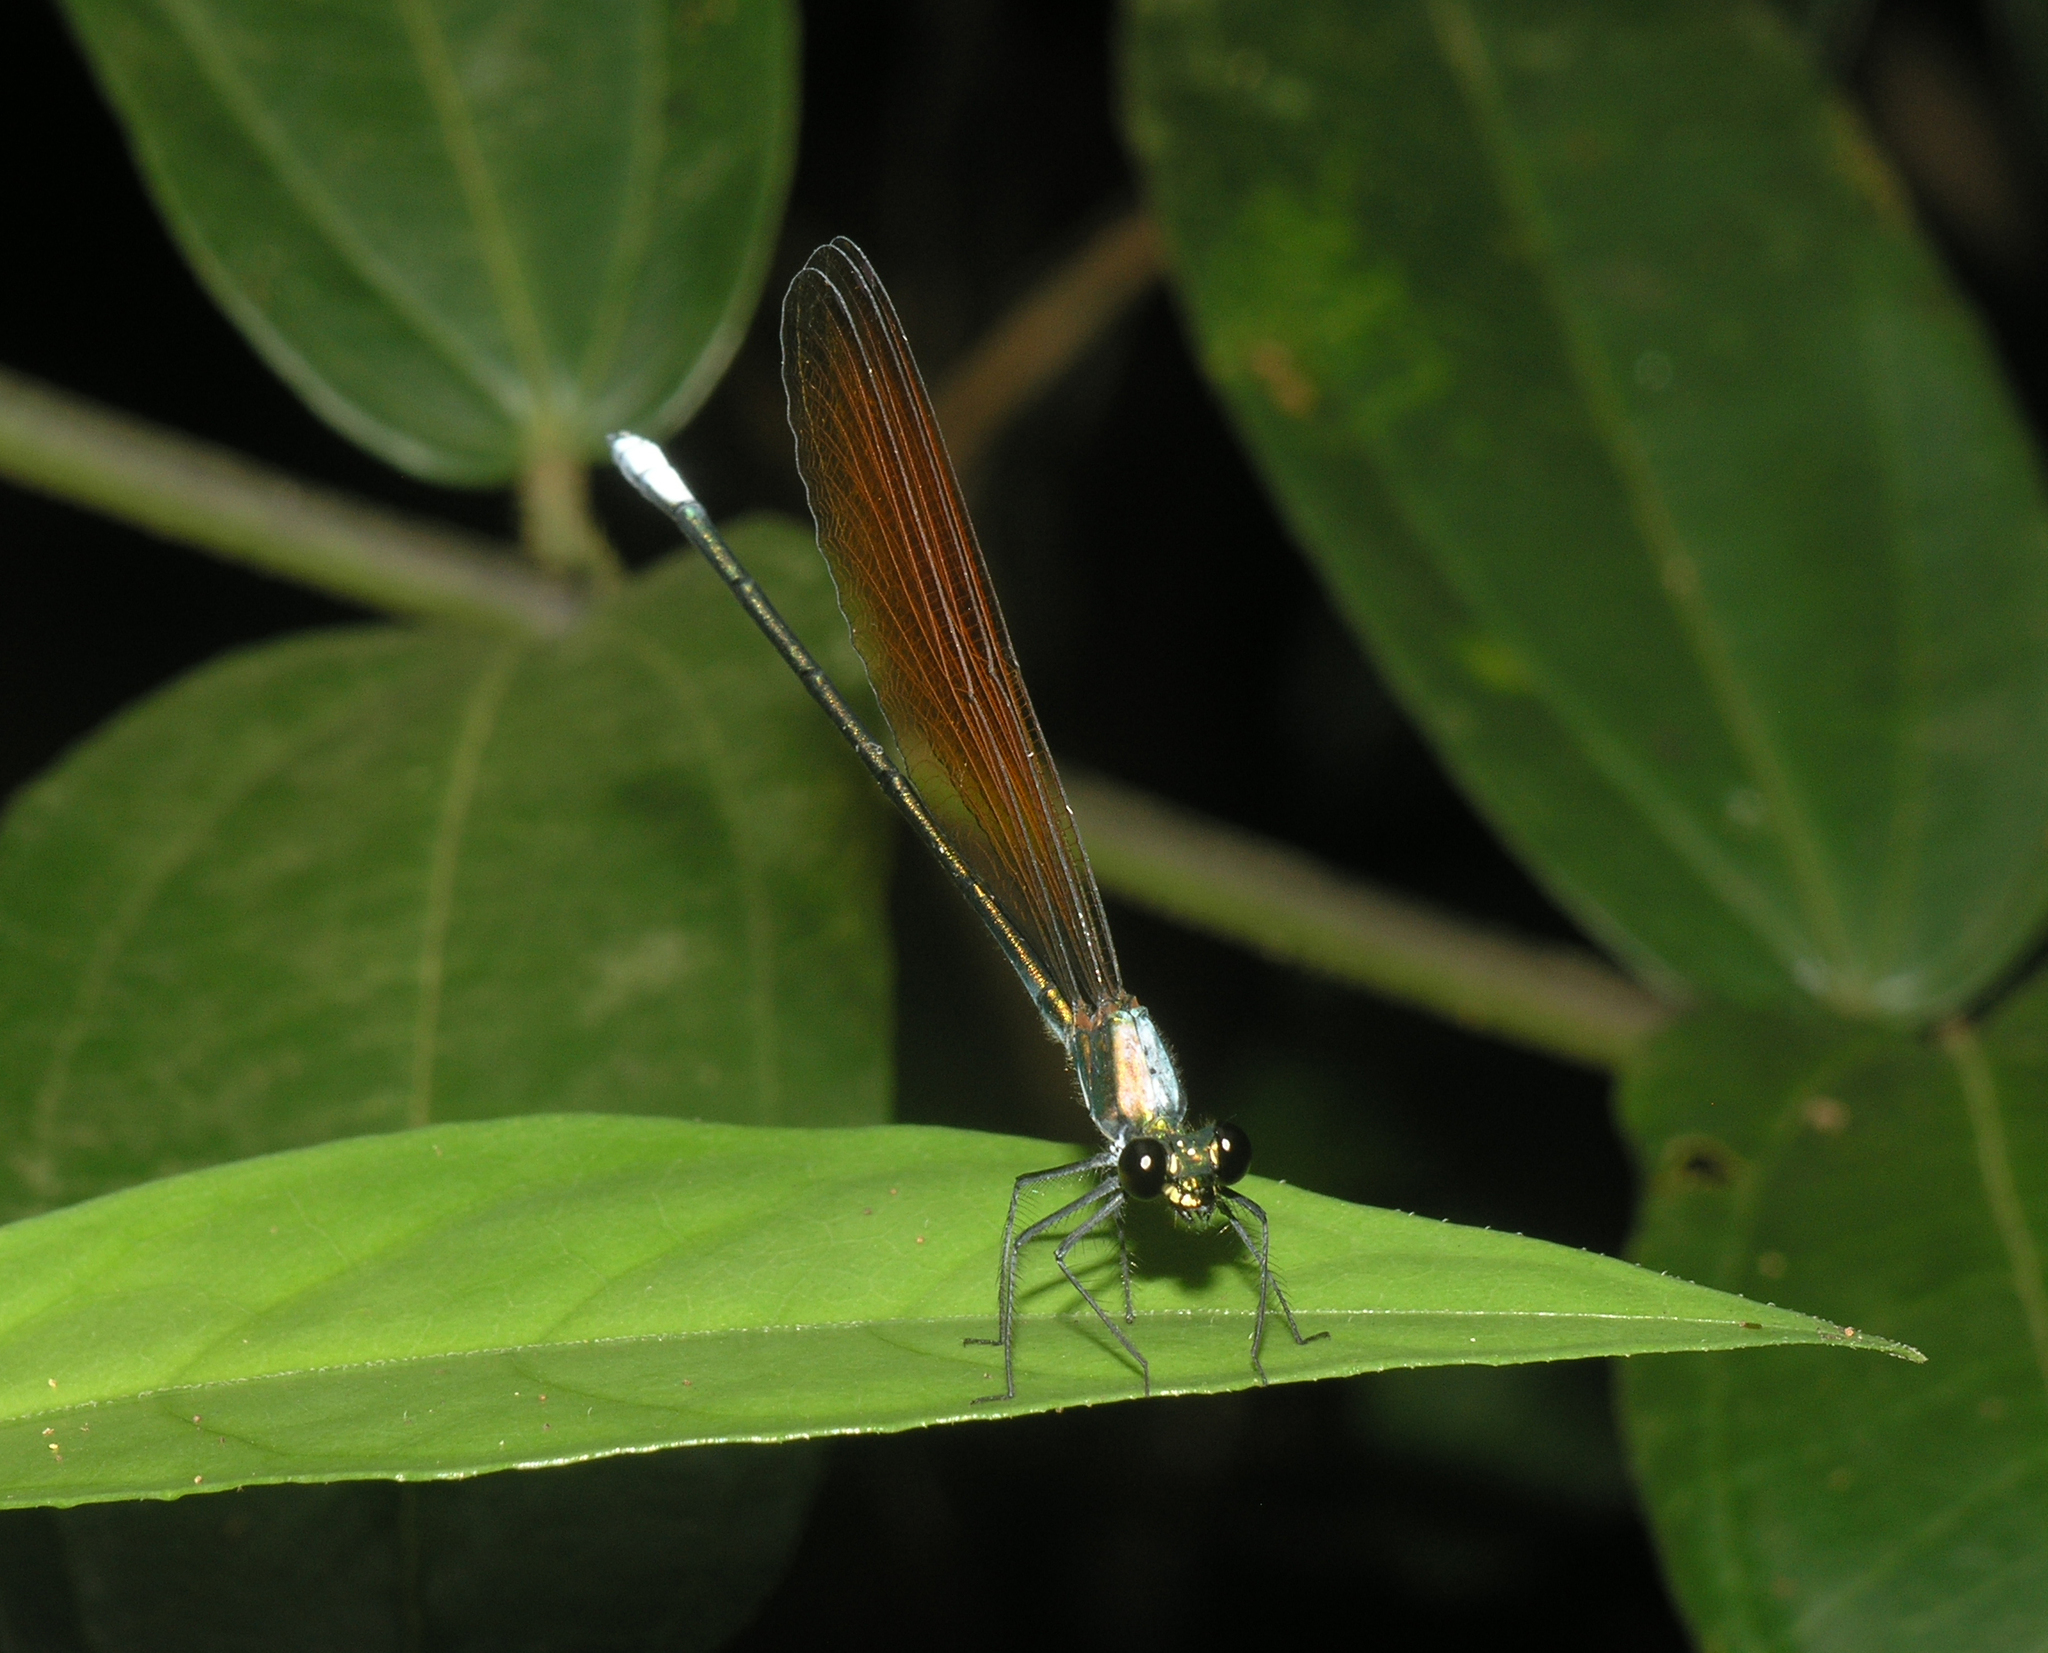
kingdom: Animalia
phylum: Arthropoda
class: Insecta
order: Odonata
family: Calopterygidae
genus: Mnais
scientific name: Mnais mneme
